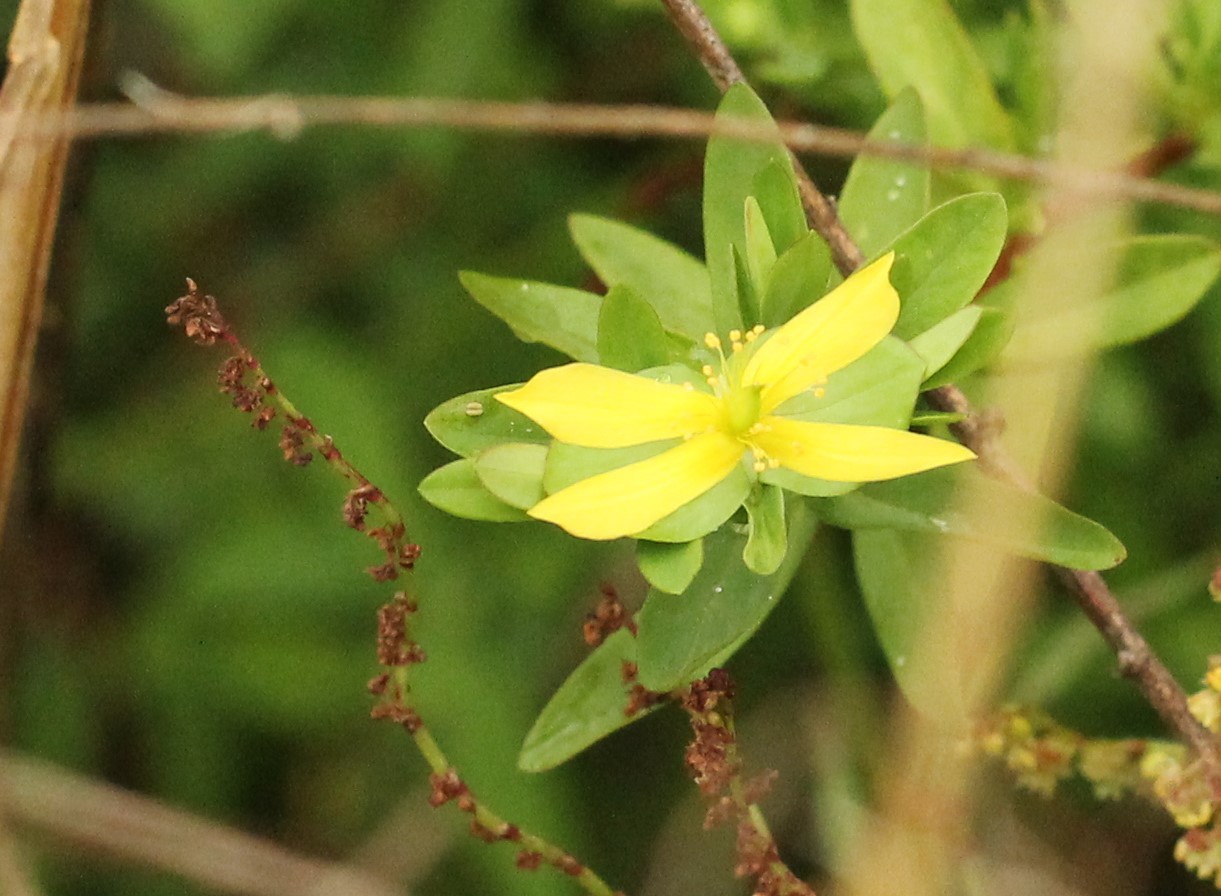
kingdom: Plantae
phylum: Tracheophyta
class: Magnoliopsida
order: Malpighiales
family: Hypericaceae
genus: Hypericum
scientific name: Hypericum hypericoides
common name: St. andrew's cross
